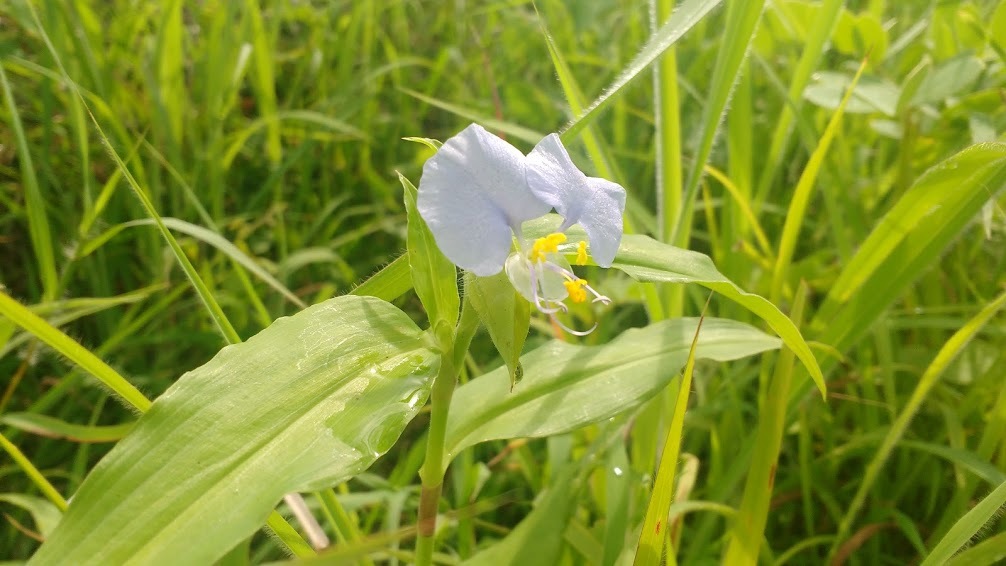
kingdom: Plantae
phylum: Tracheophyta
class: Liliopsida
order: Commelinales
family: Commelinaceae
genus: Commelina
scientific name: Commelina erecta
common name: Blousel blommetjie
